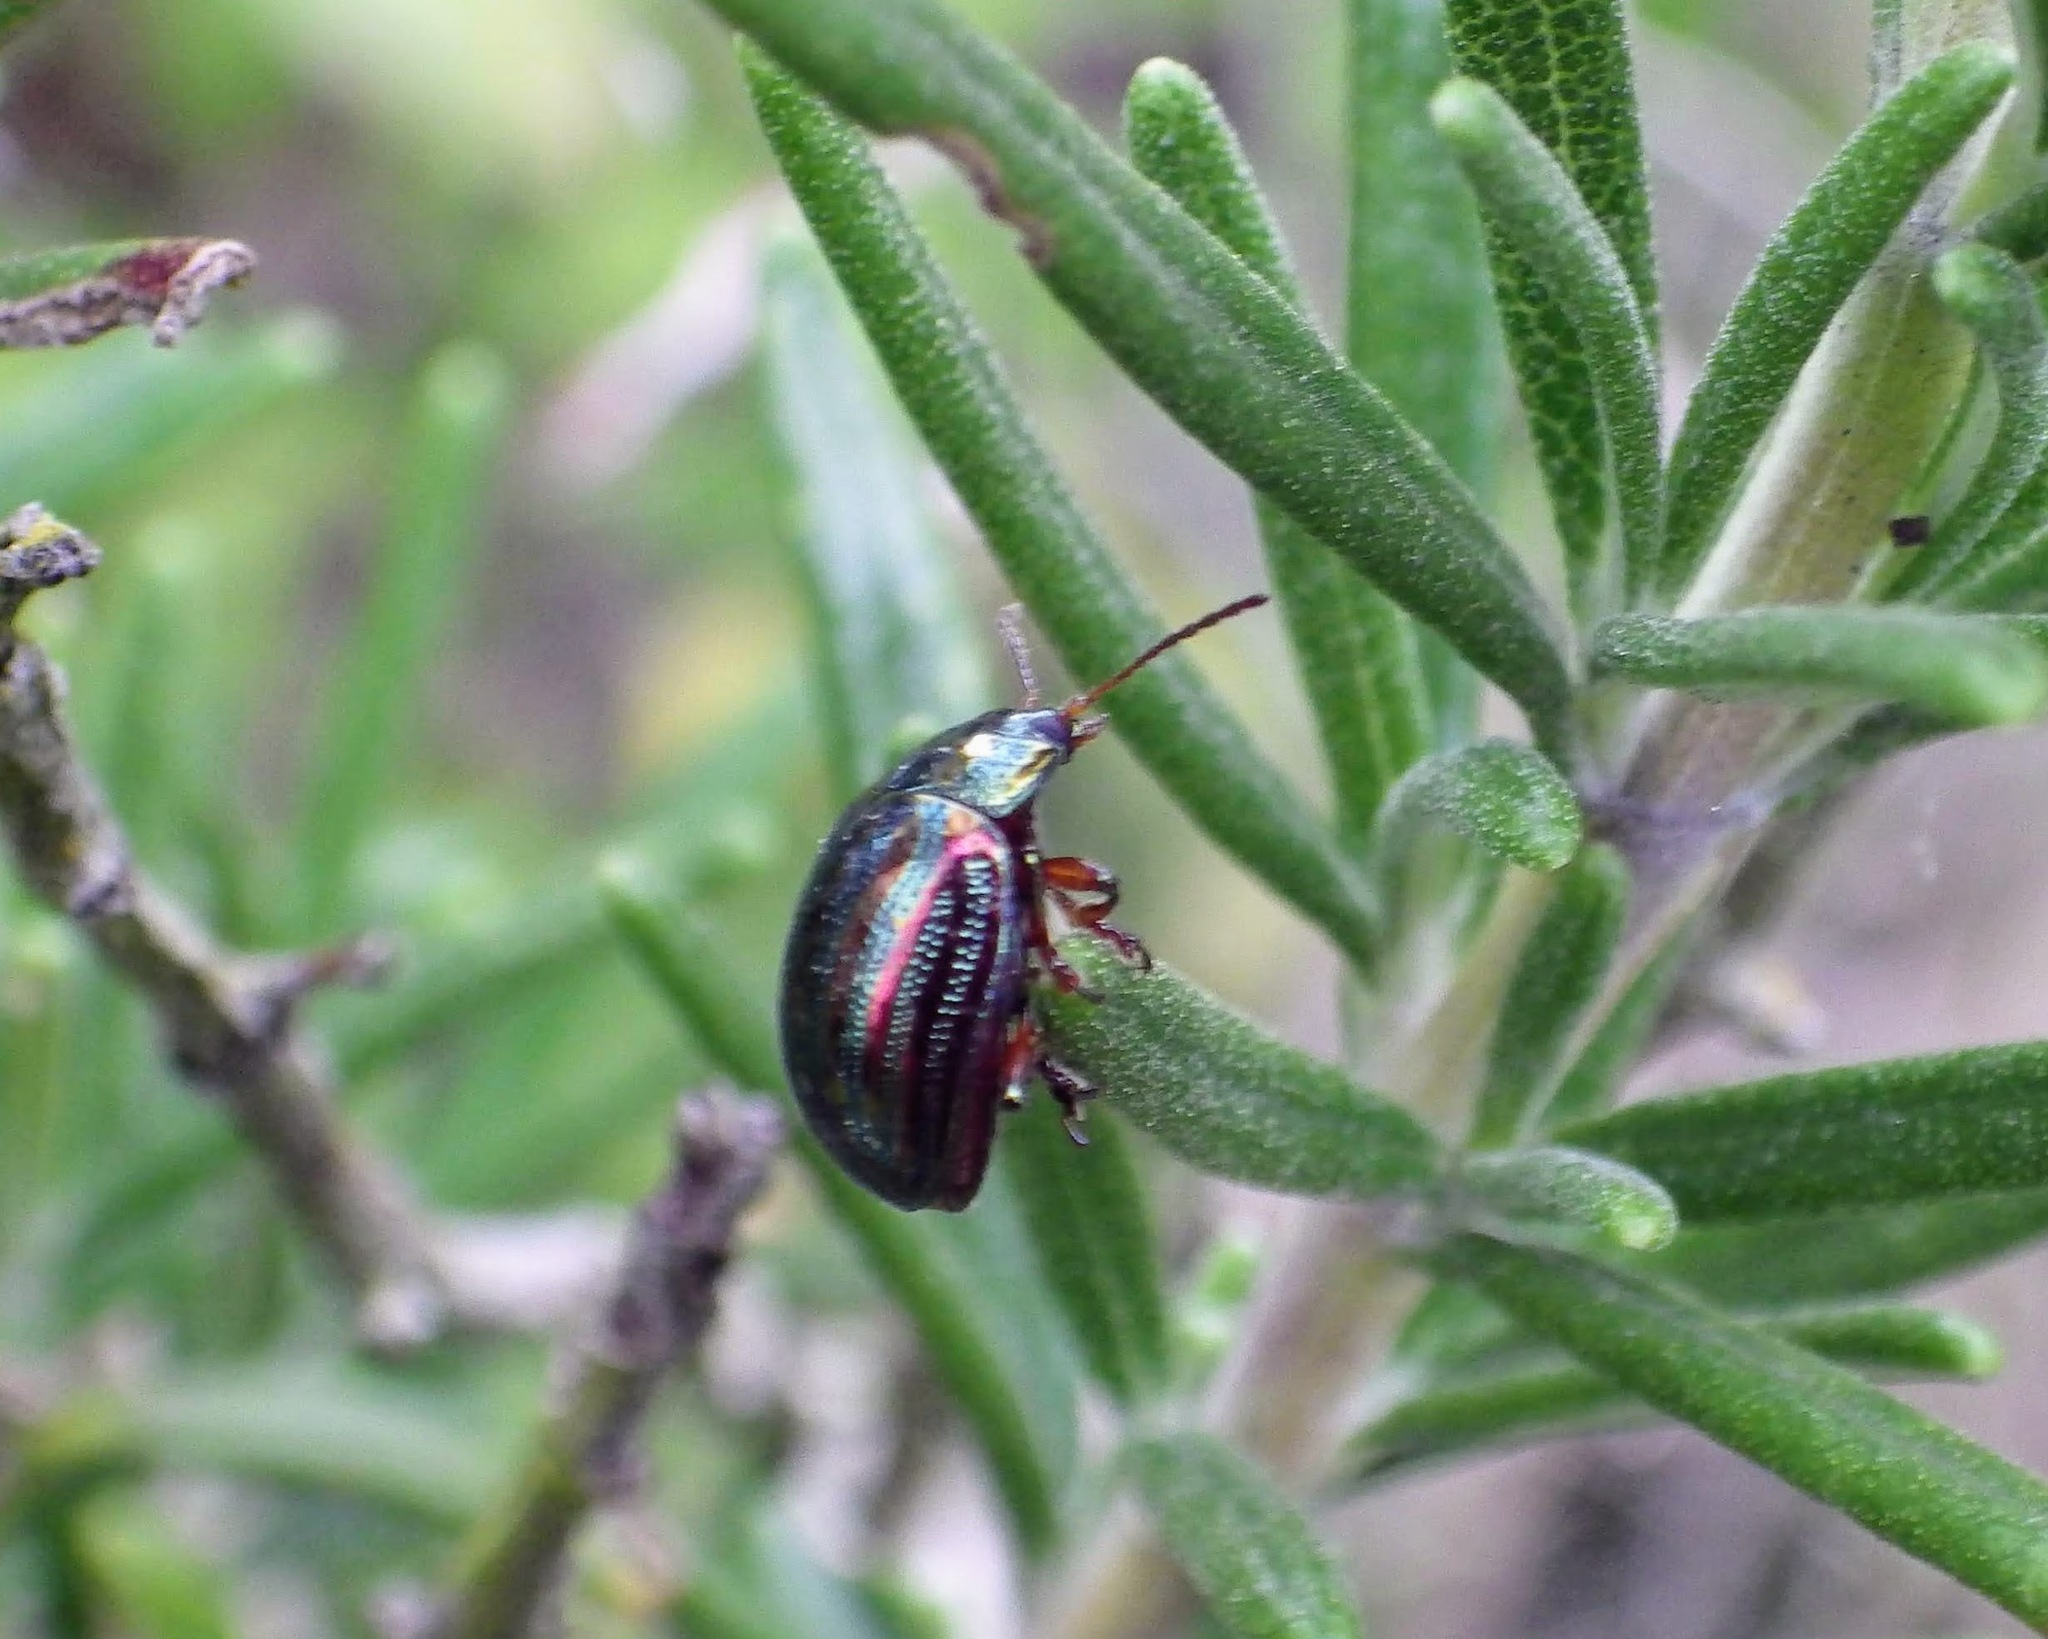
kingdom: Animalia
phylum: Arthropoda
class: Insecta
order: Coleoptera
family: Chrysomelidae
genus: Chrysolina
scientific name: Chrysolina americana
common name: Rosemary beetle
